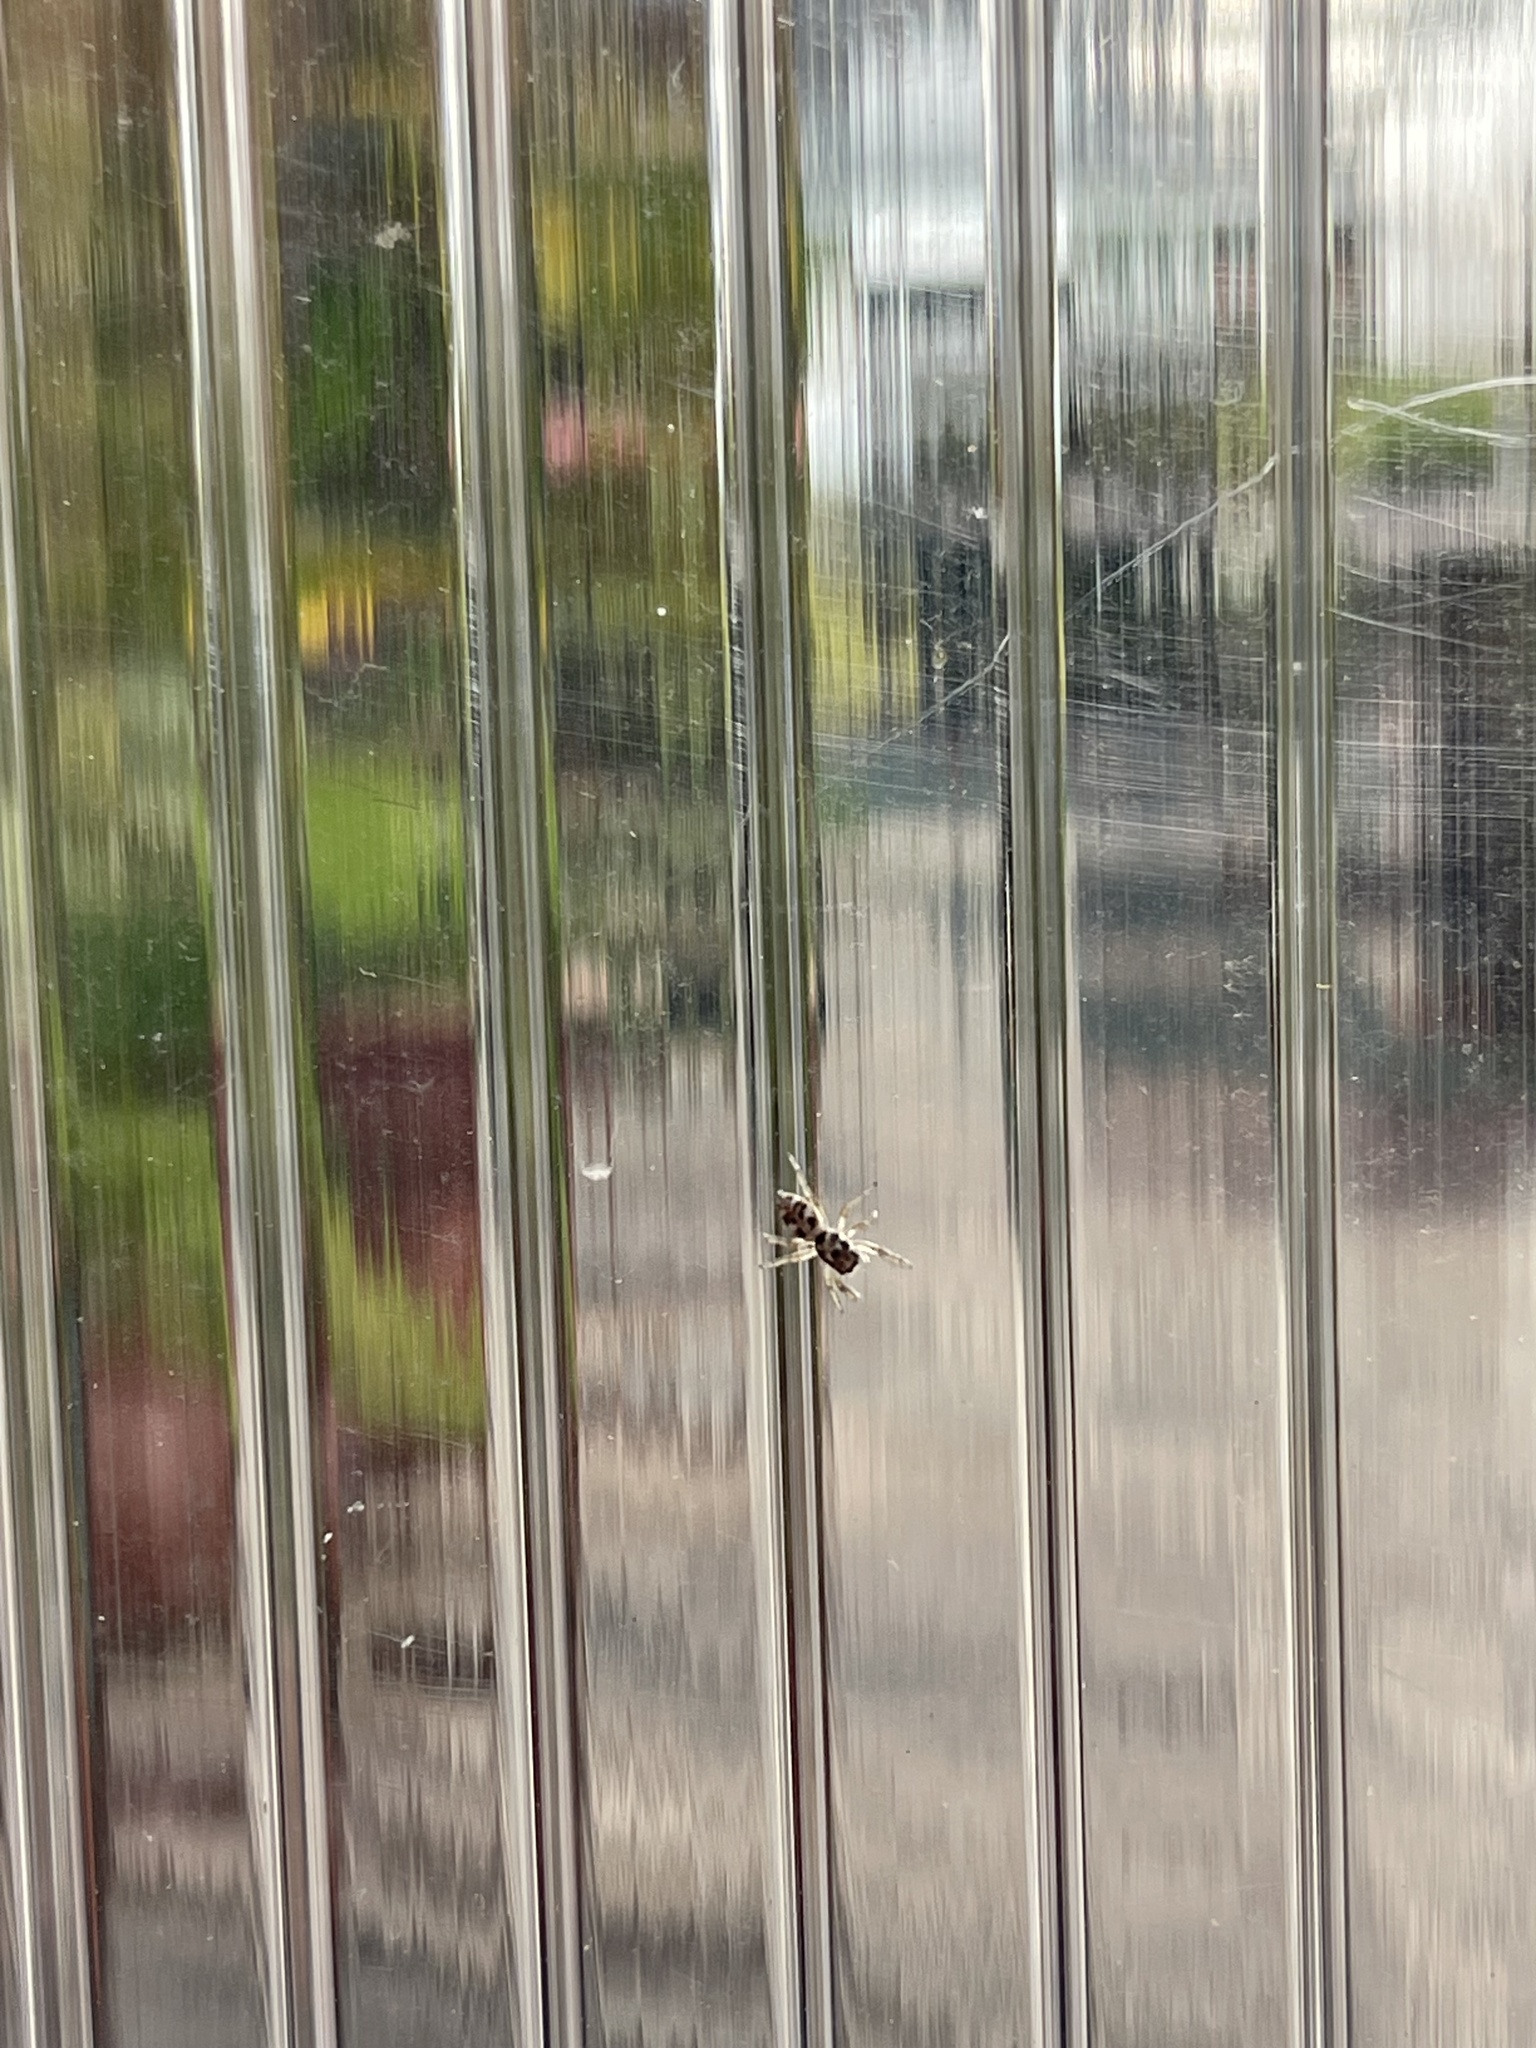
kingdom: Animalia
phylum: Arthropoda
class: Arachnida
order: Araneae
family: Salticidae
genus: Salticus
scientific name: Salticus scenicus
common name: Zebra jumper
